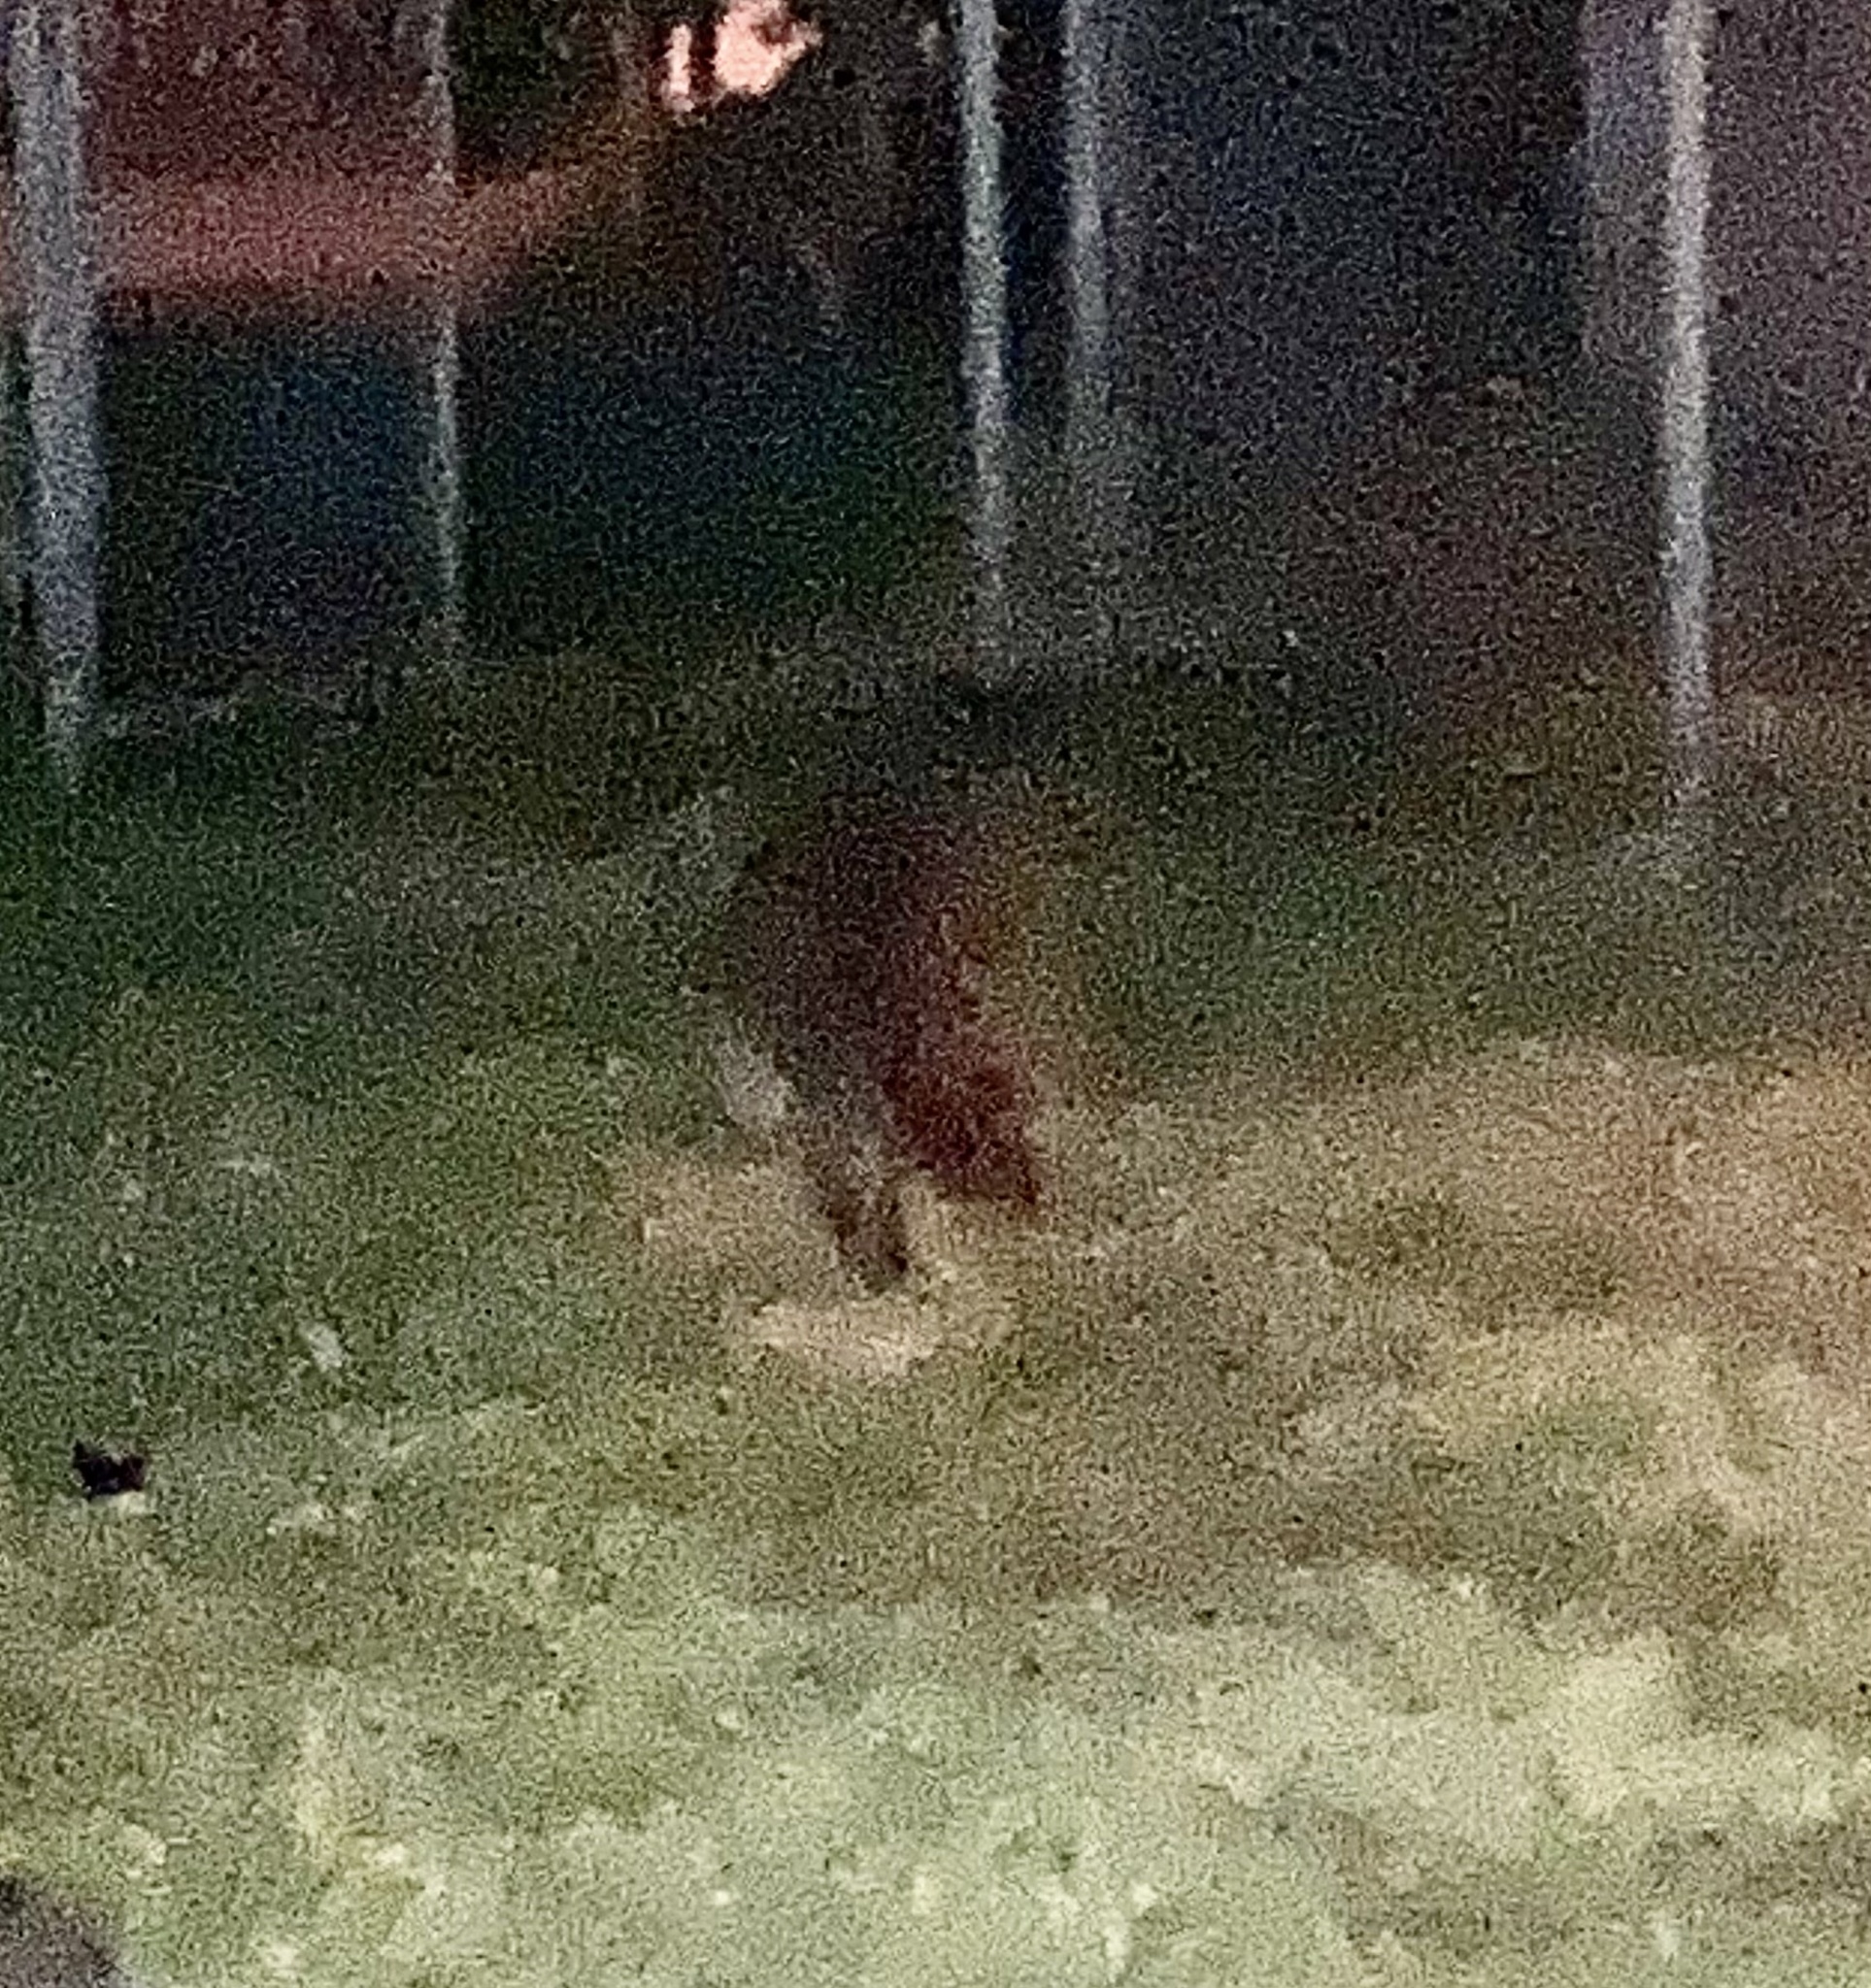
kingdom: Animalia
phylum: Chordata
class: Mammalia
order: Carnivora
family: Procyonidae
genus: Procyon
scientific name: Procyon lotor
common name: Raccoon
